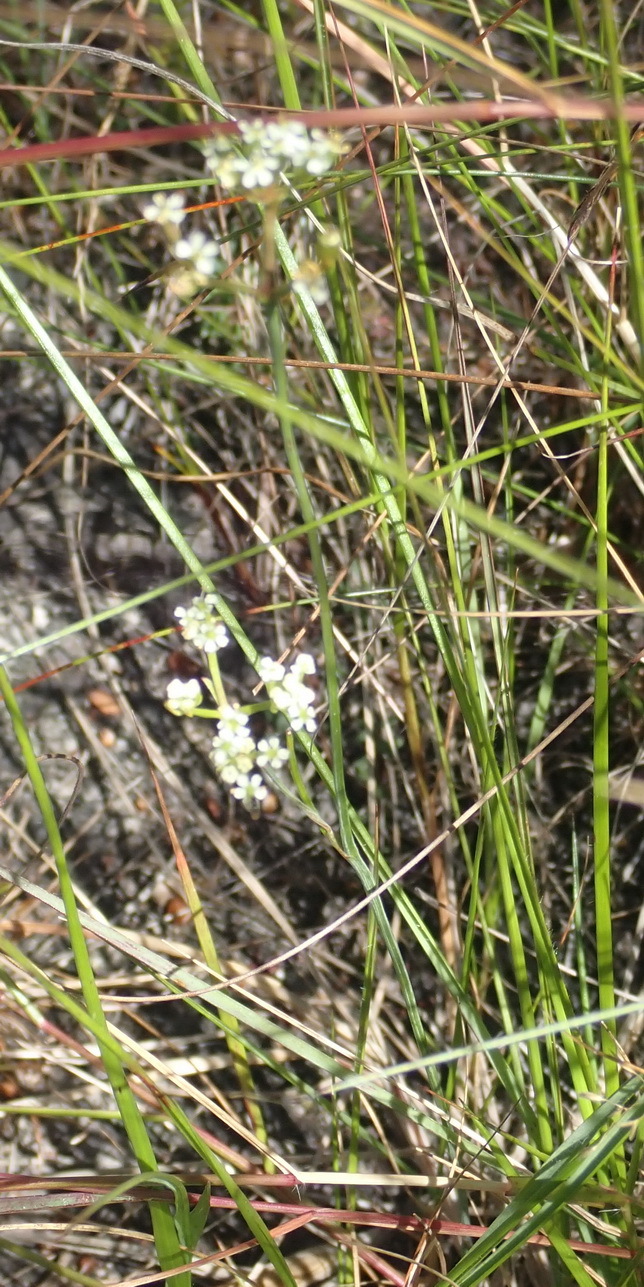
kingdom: Plantae
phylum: Tracheophyta
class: Magnoliopsida
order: Apiales
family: Apiaceae
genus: Itasina
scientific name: Itasina filifolia
